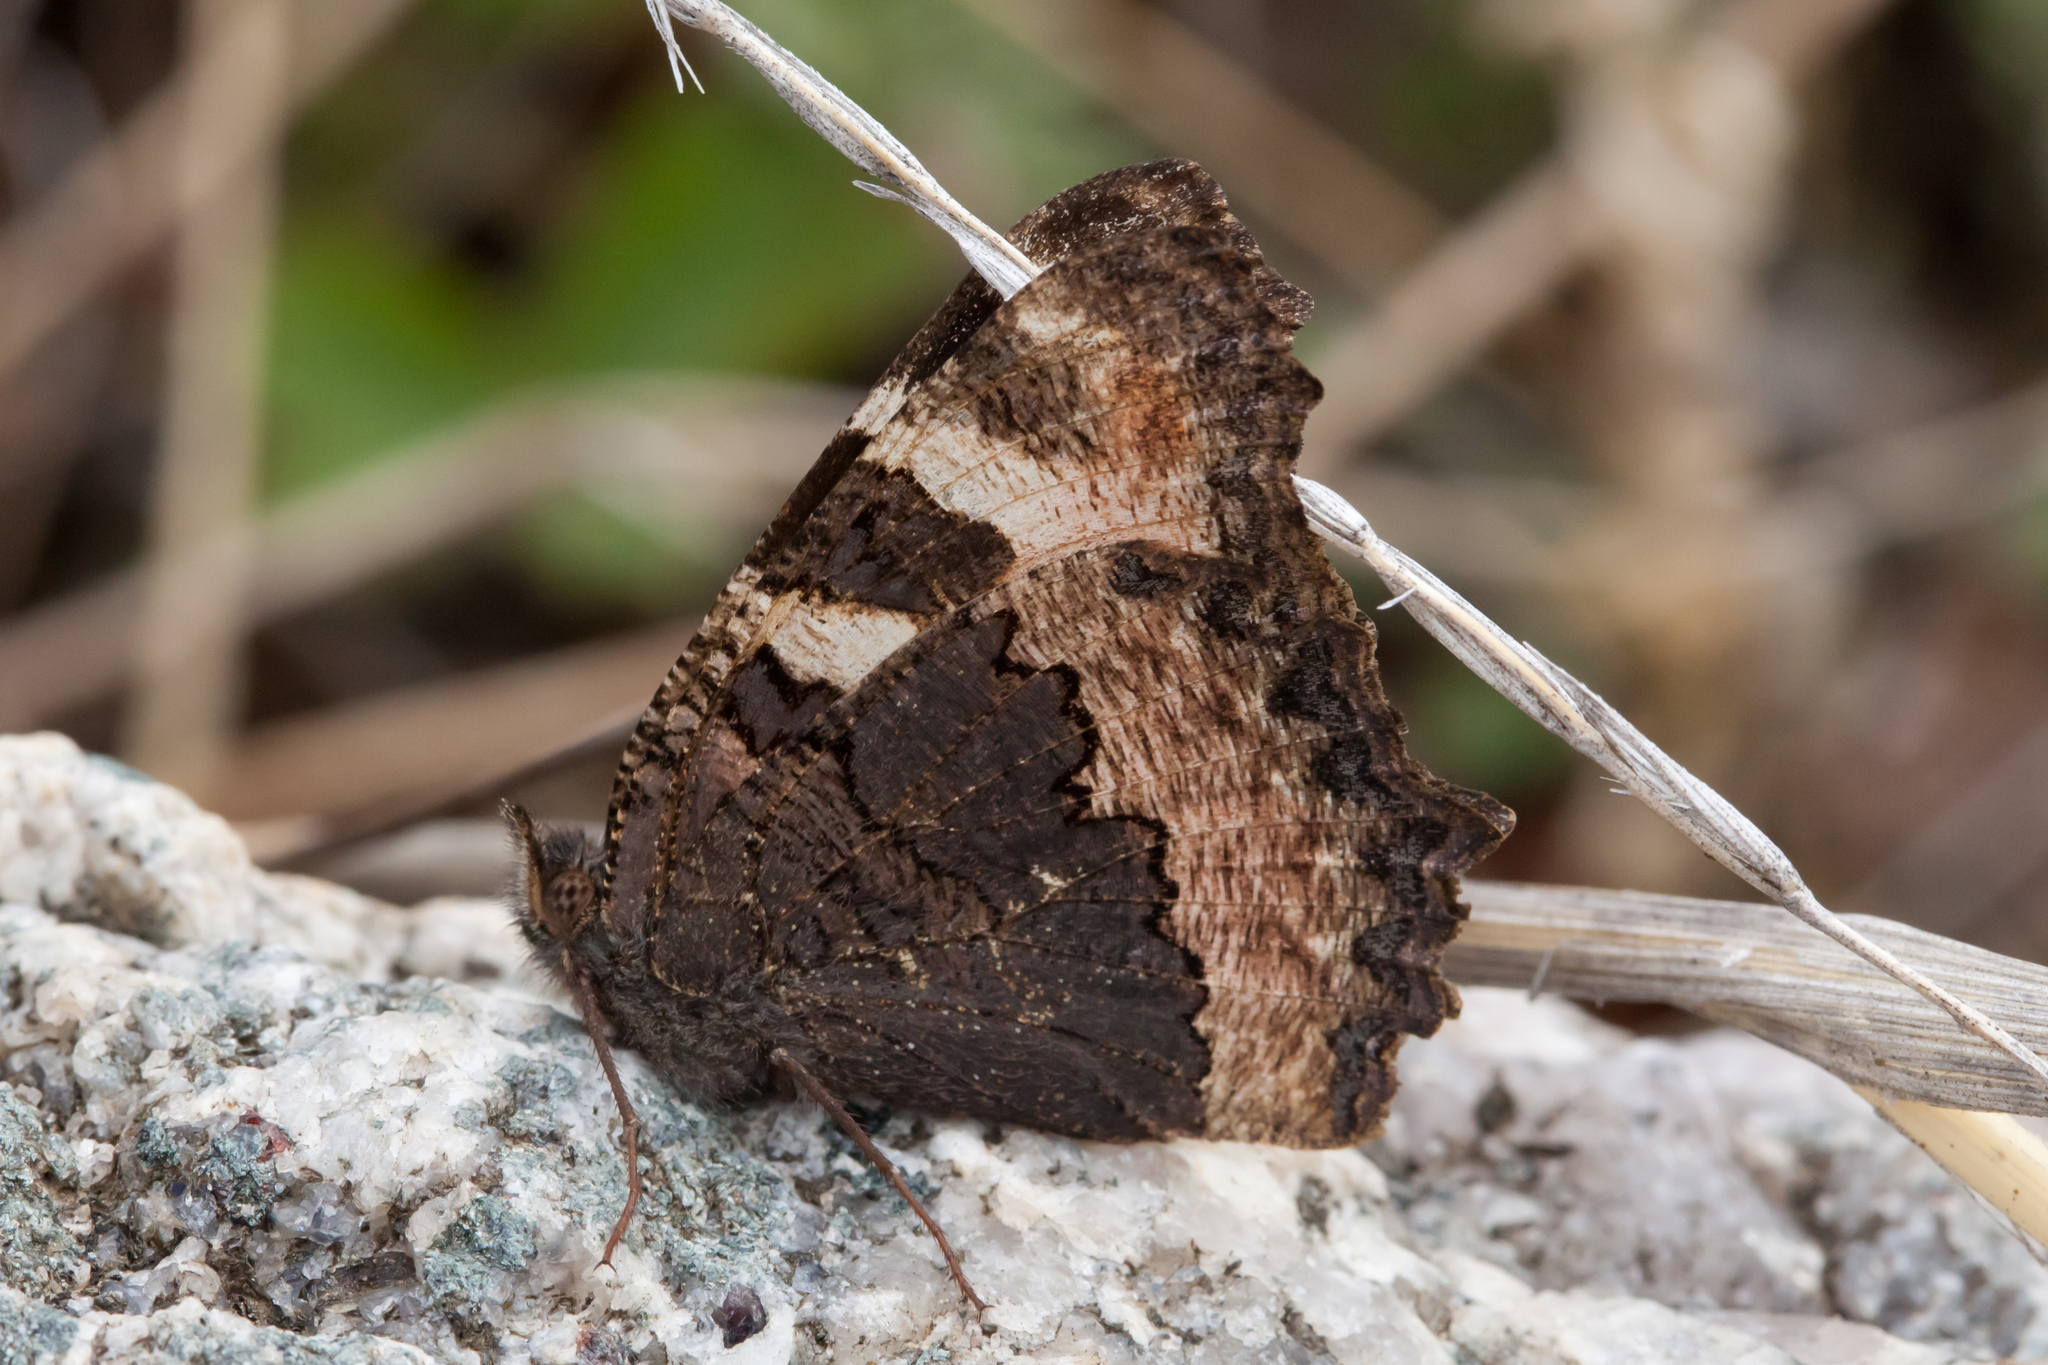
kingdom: Animalia
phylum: Arthropoda
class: Insecta
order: Lepidoptera
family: Nymphalidae
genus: Aglais
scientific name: Aglais urticae
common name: Small tortoiseshell
